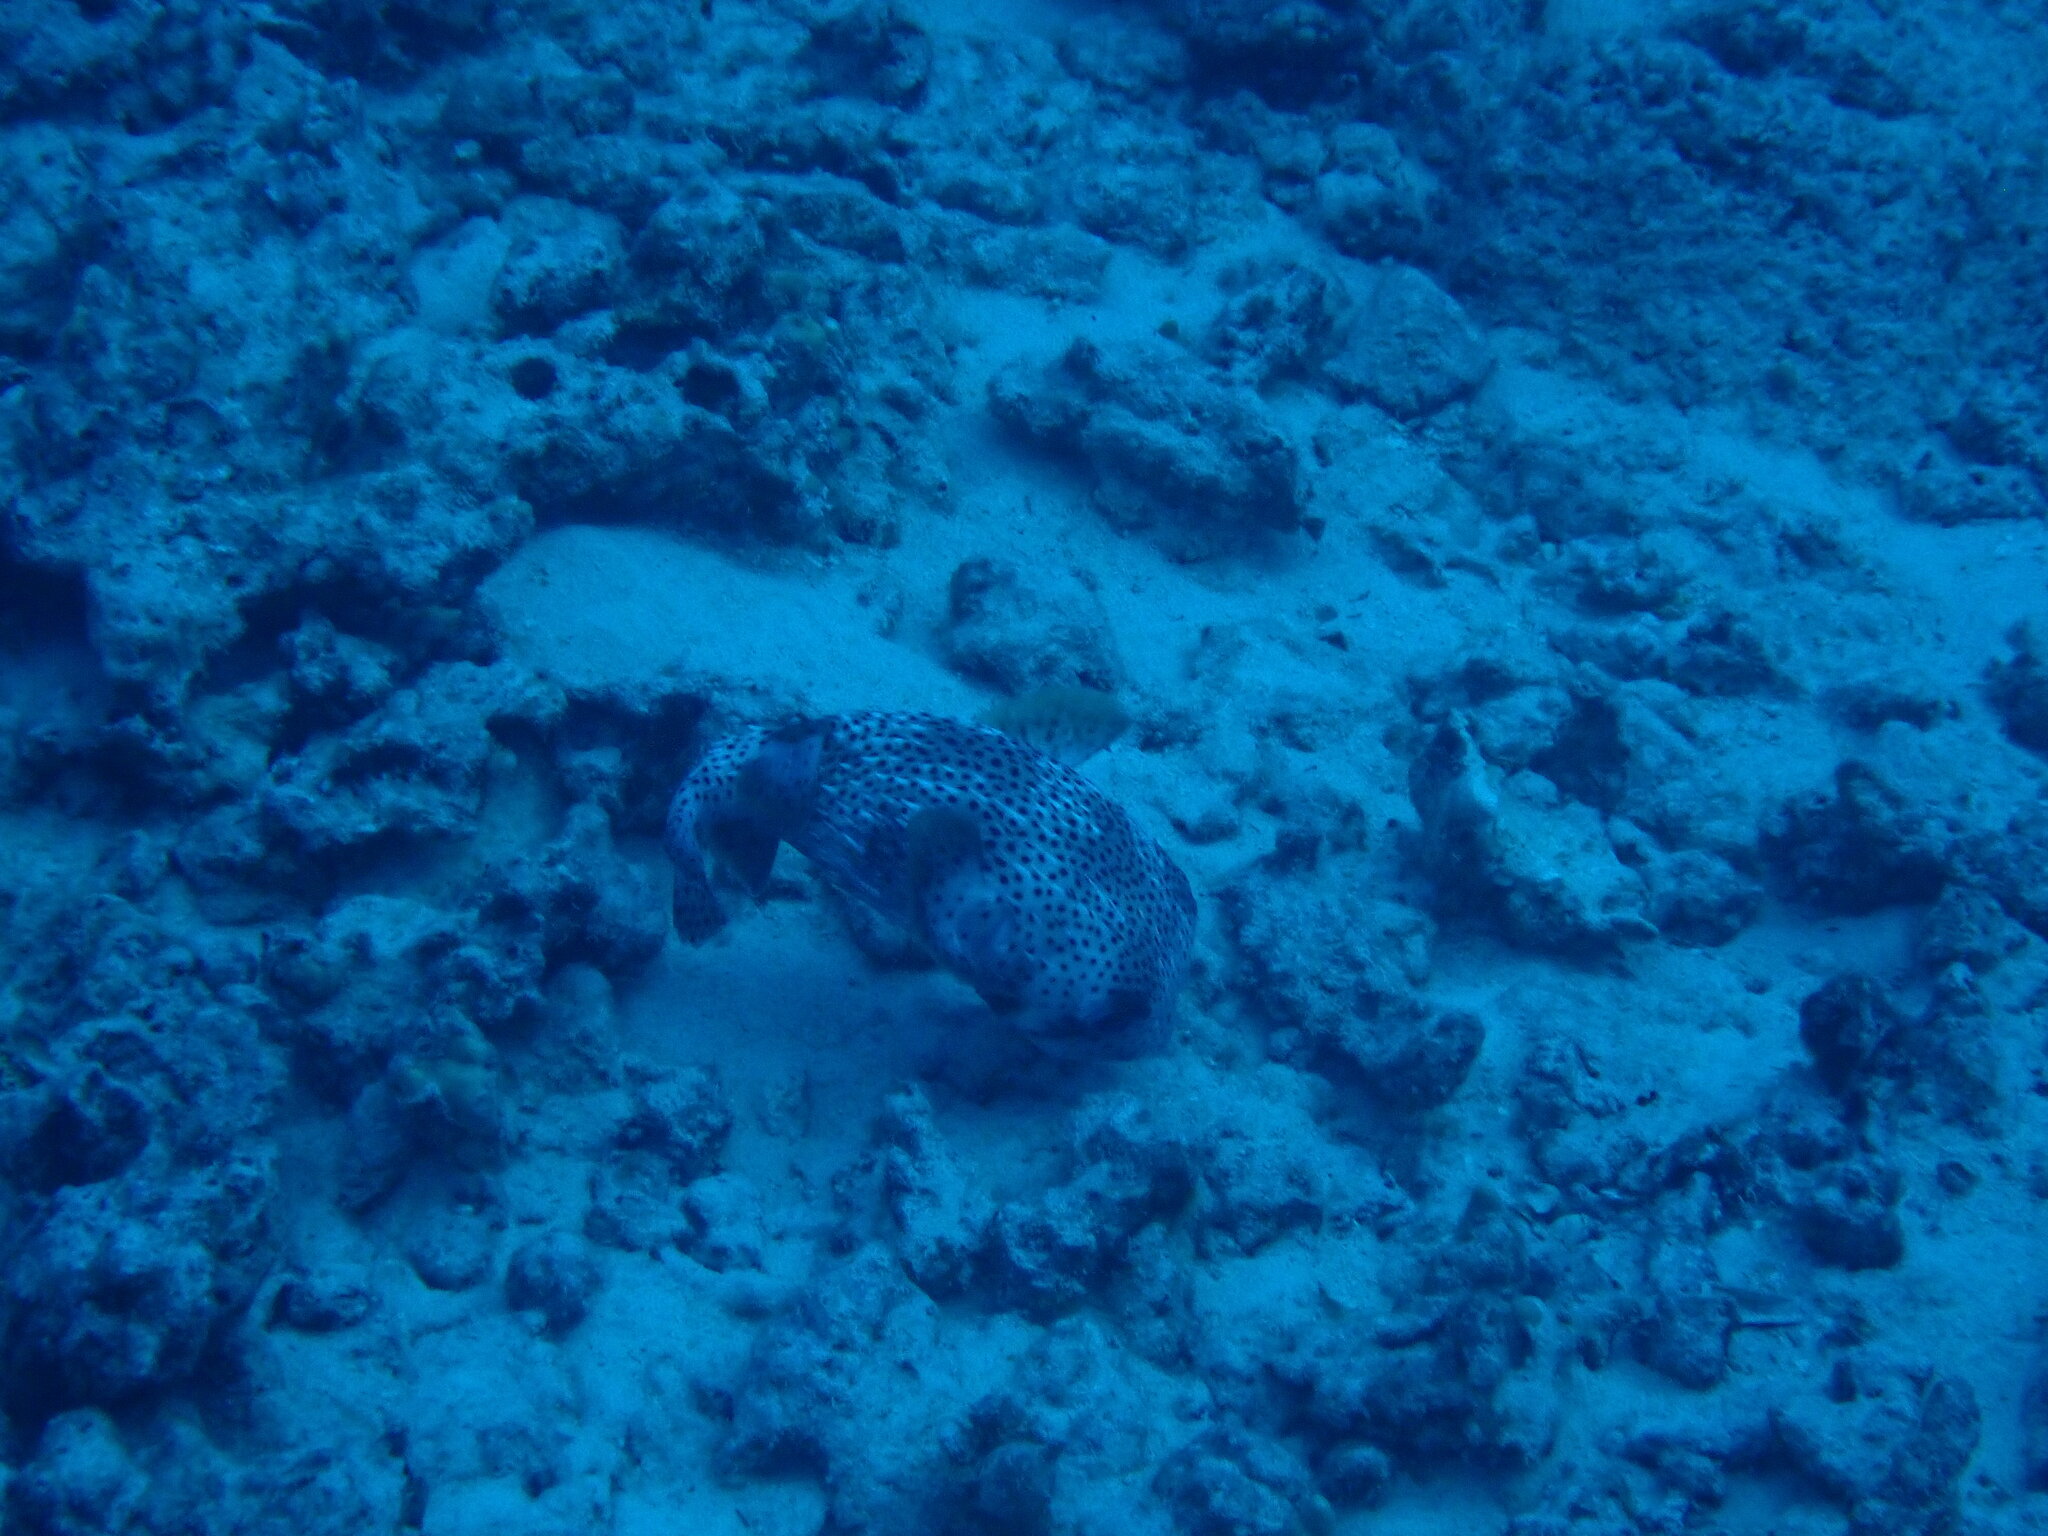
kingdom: Animalia
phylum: Chordata
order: Tetraodontiformes
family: Diodontidae
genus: Diodon
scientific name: Diodon hystrix
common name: Giant porcupinefish
